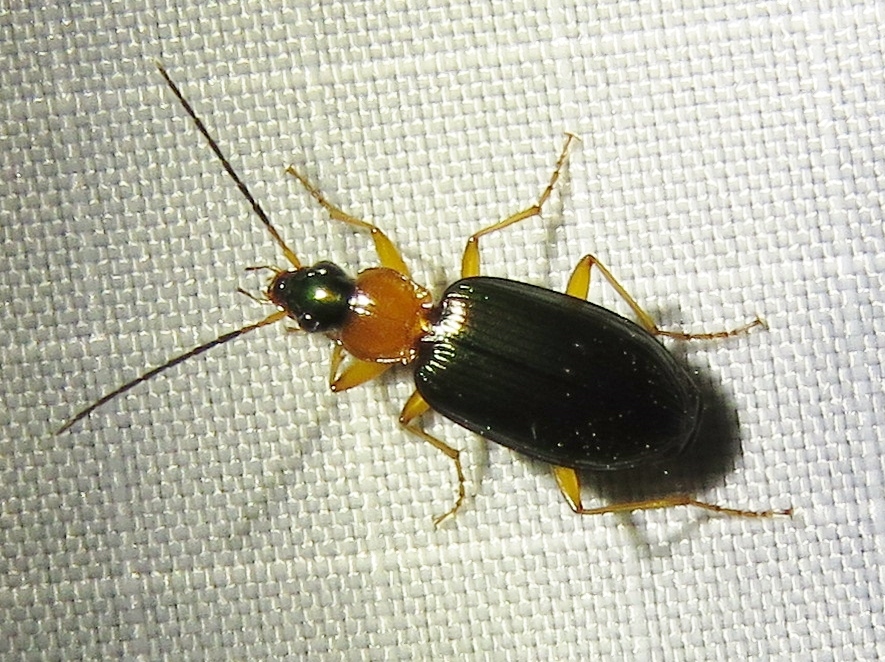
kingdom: Animalia
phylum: Arthropoda
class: Insecta
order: Coleoptera
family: Carabidae
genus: Agonum
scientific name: Agonum decorum
